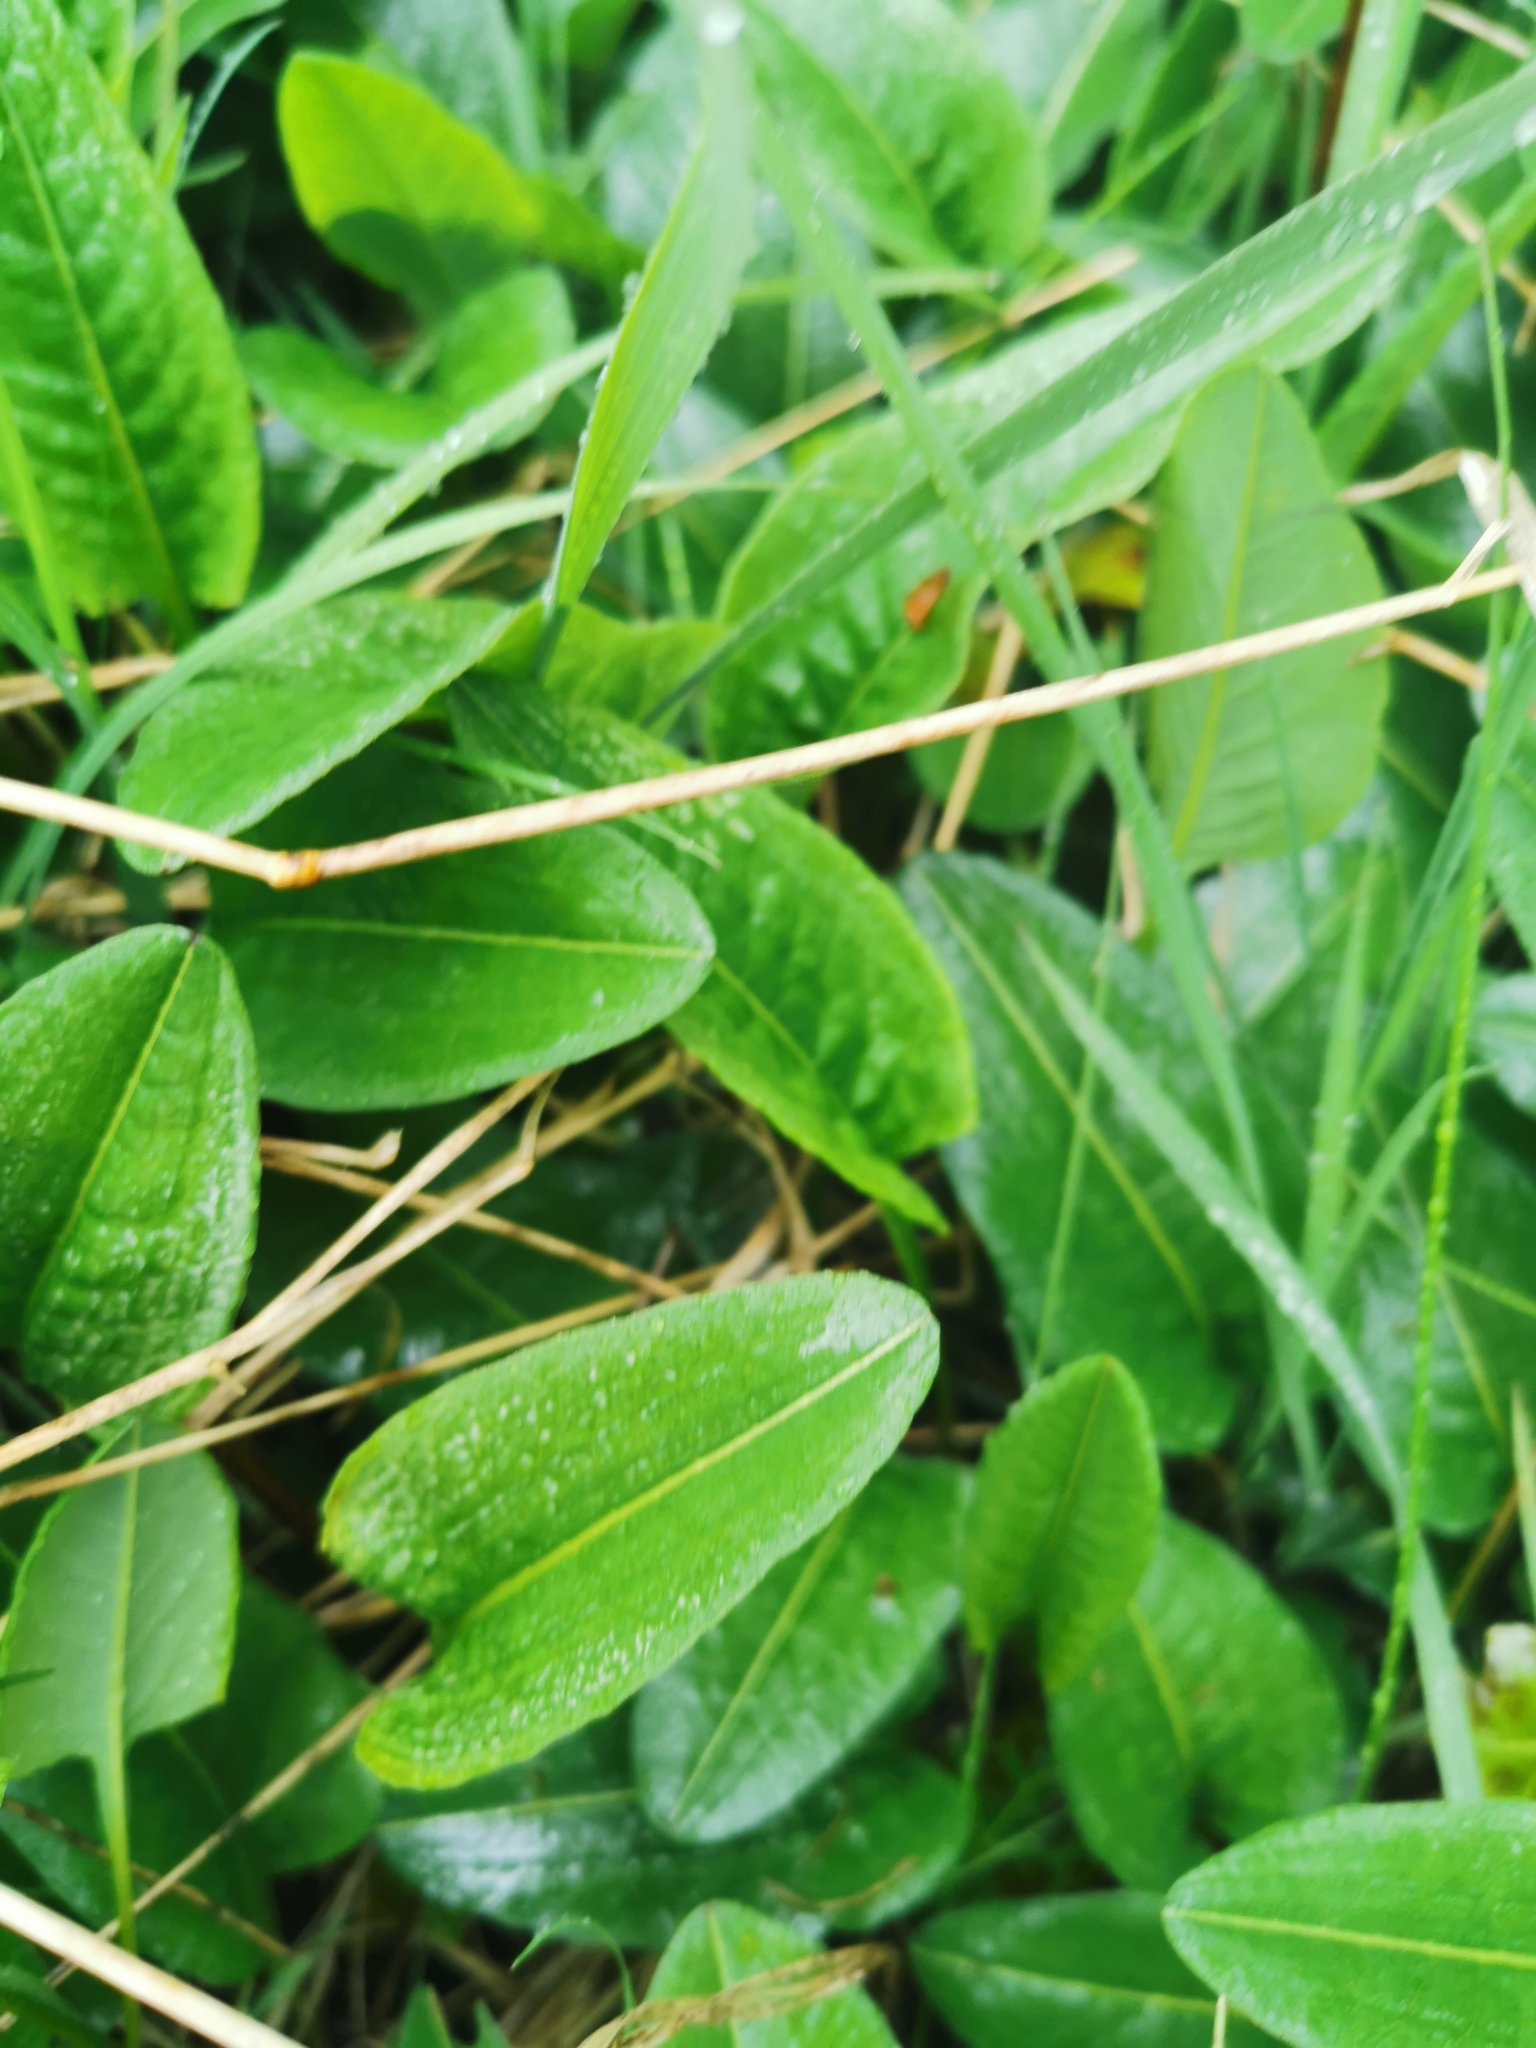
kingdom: Plantae
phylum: Tracheophyta
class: Magnoliopsida
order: Caryophyllales
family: Polygonaceae
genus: Bistorta
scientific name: Bistorta officinalis
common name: Common bistort
